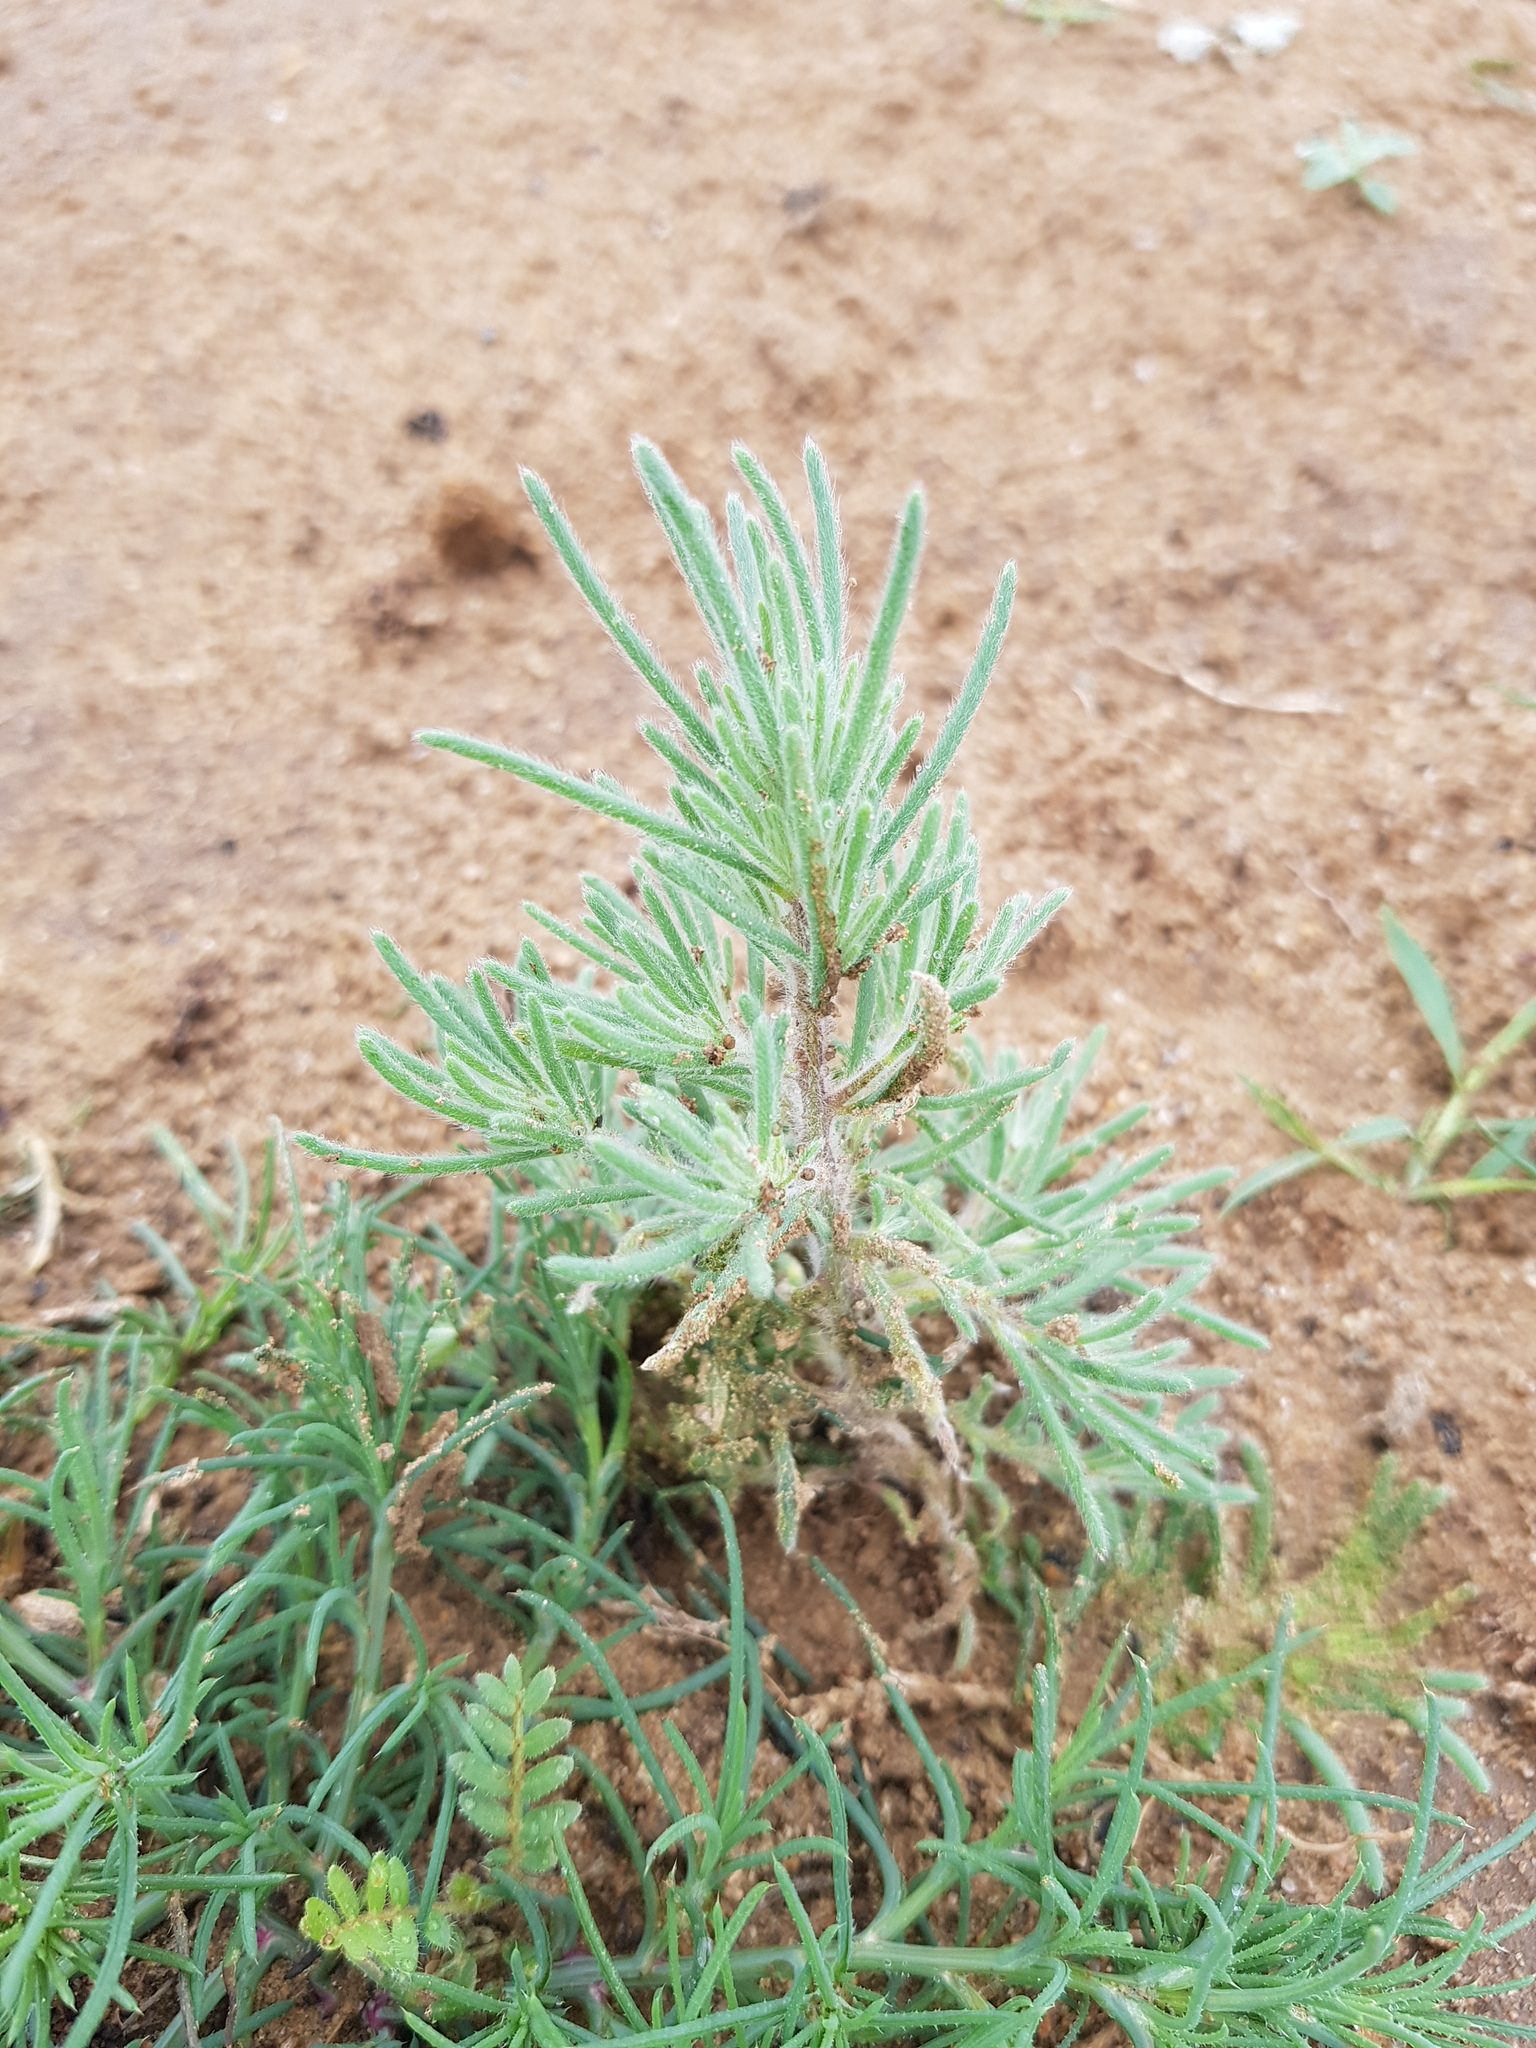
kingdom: Plantae
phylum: Tracheophyta
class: Magnoliopsida
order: Caryophyllales
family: Amaranthaceae
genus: Grubovia
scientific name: Grubovia dasyphylla
